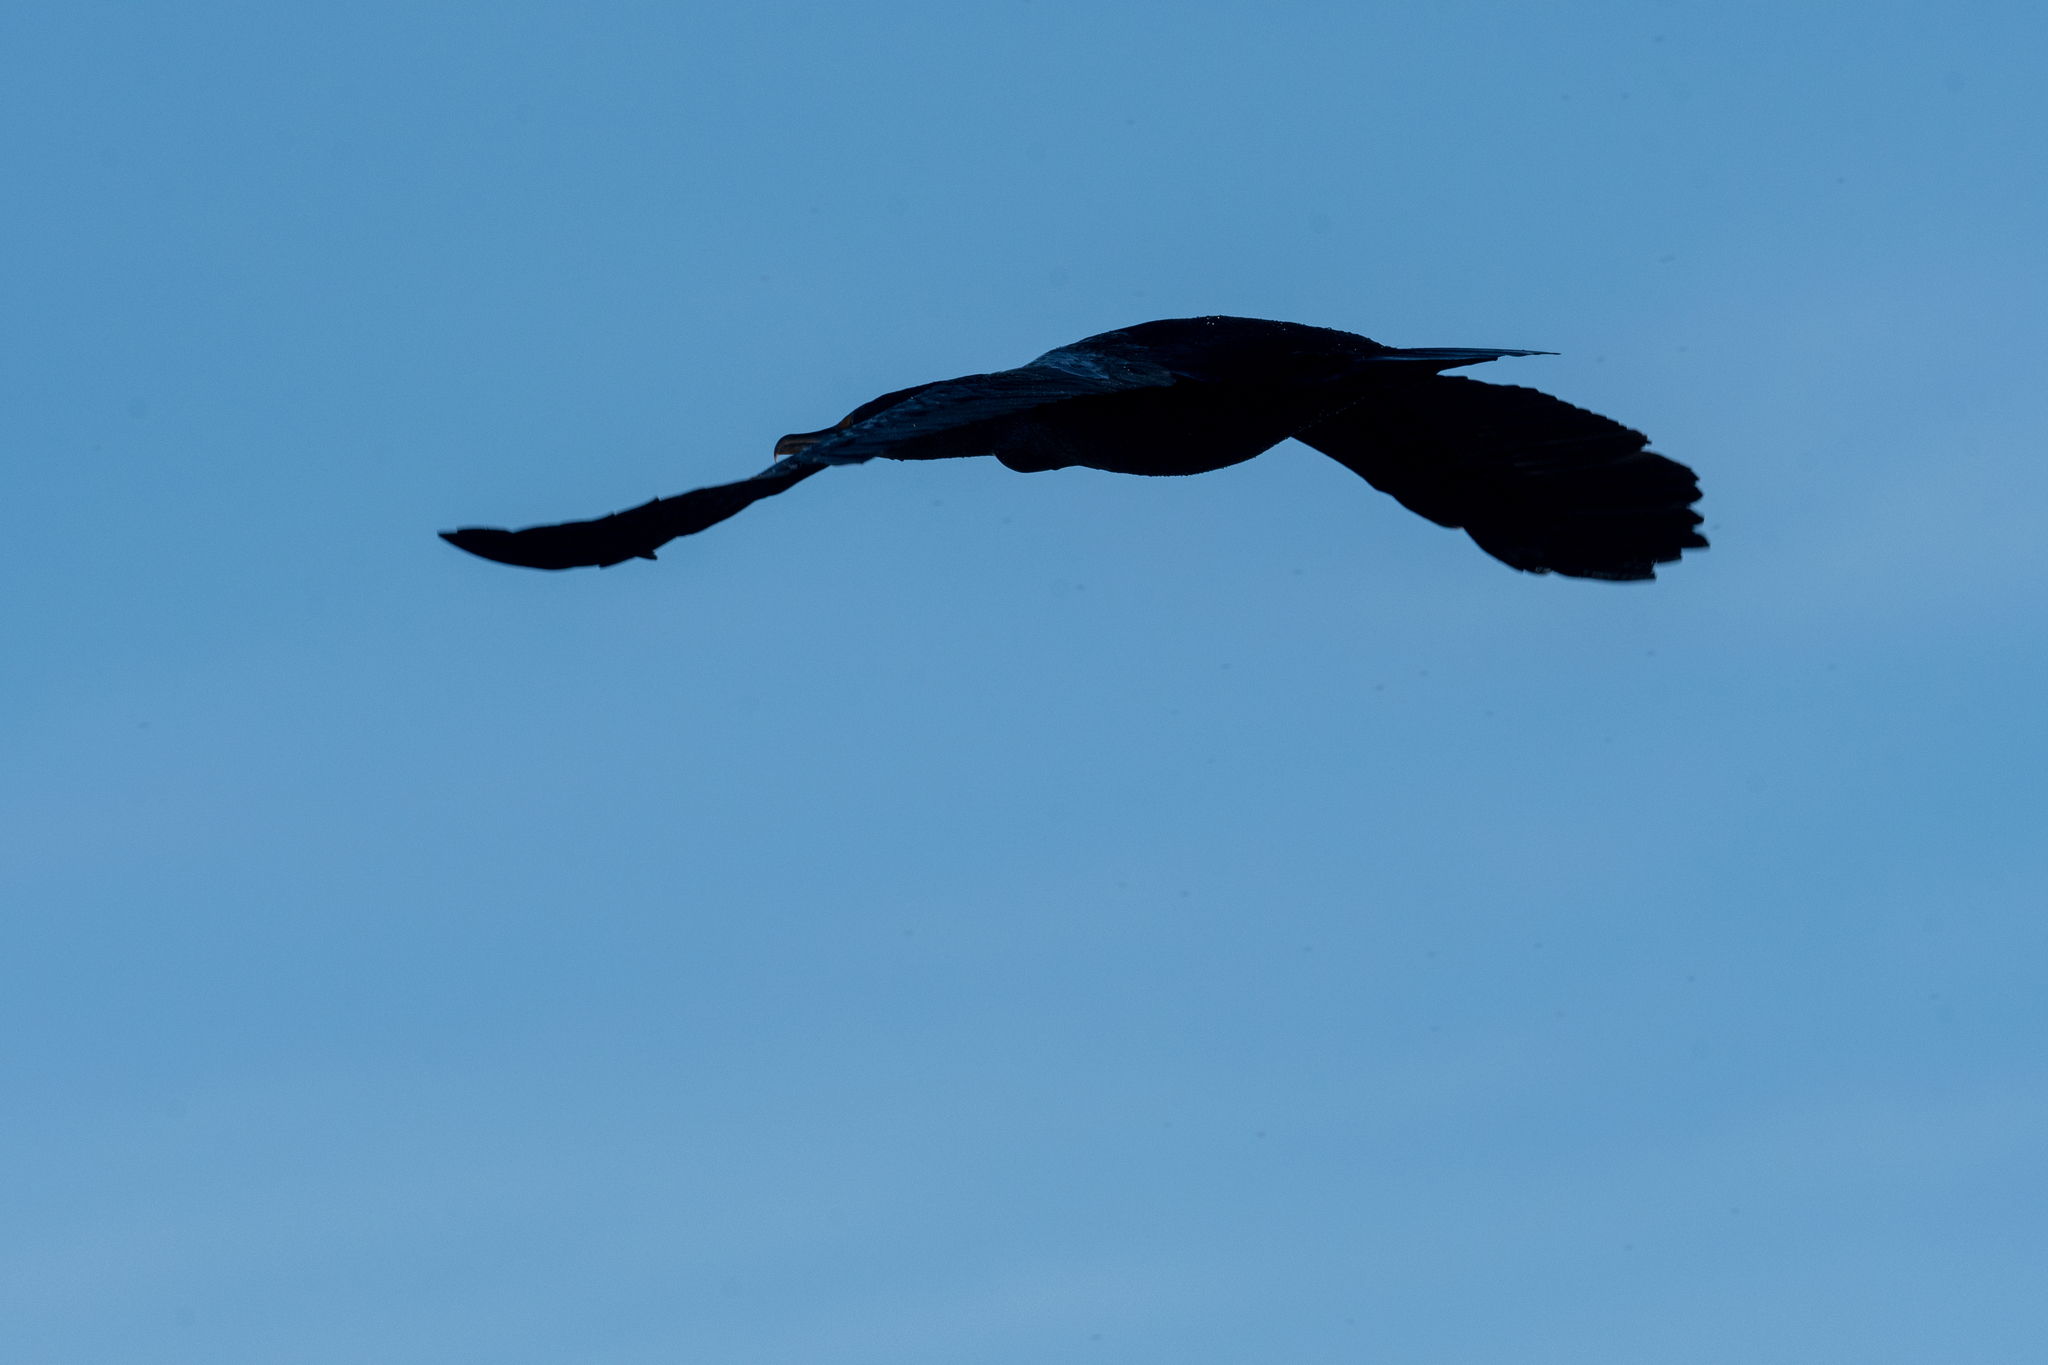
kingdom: Animalia
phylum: Chordata
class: Aves
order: Suliformes
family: Phalacrocoracidae
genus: Phalacrocorax
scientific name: Phalacrocorax auritus
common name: Double-crested cormorant
